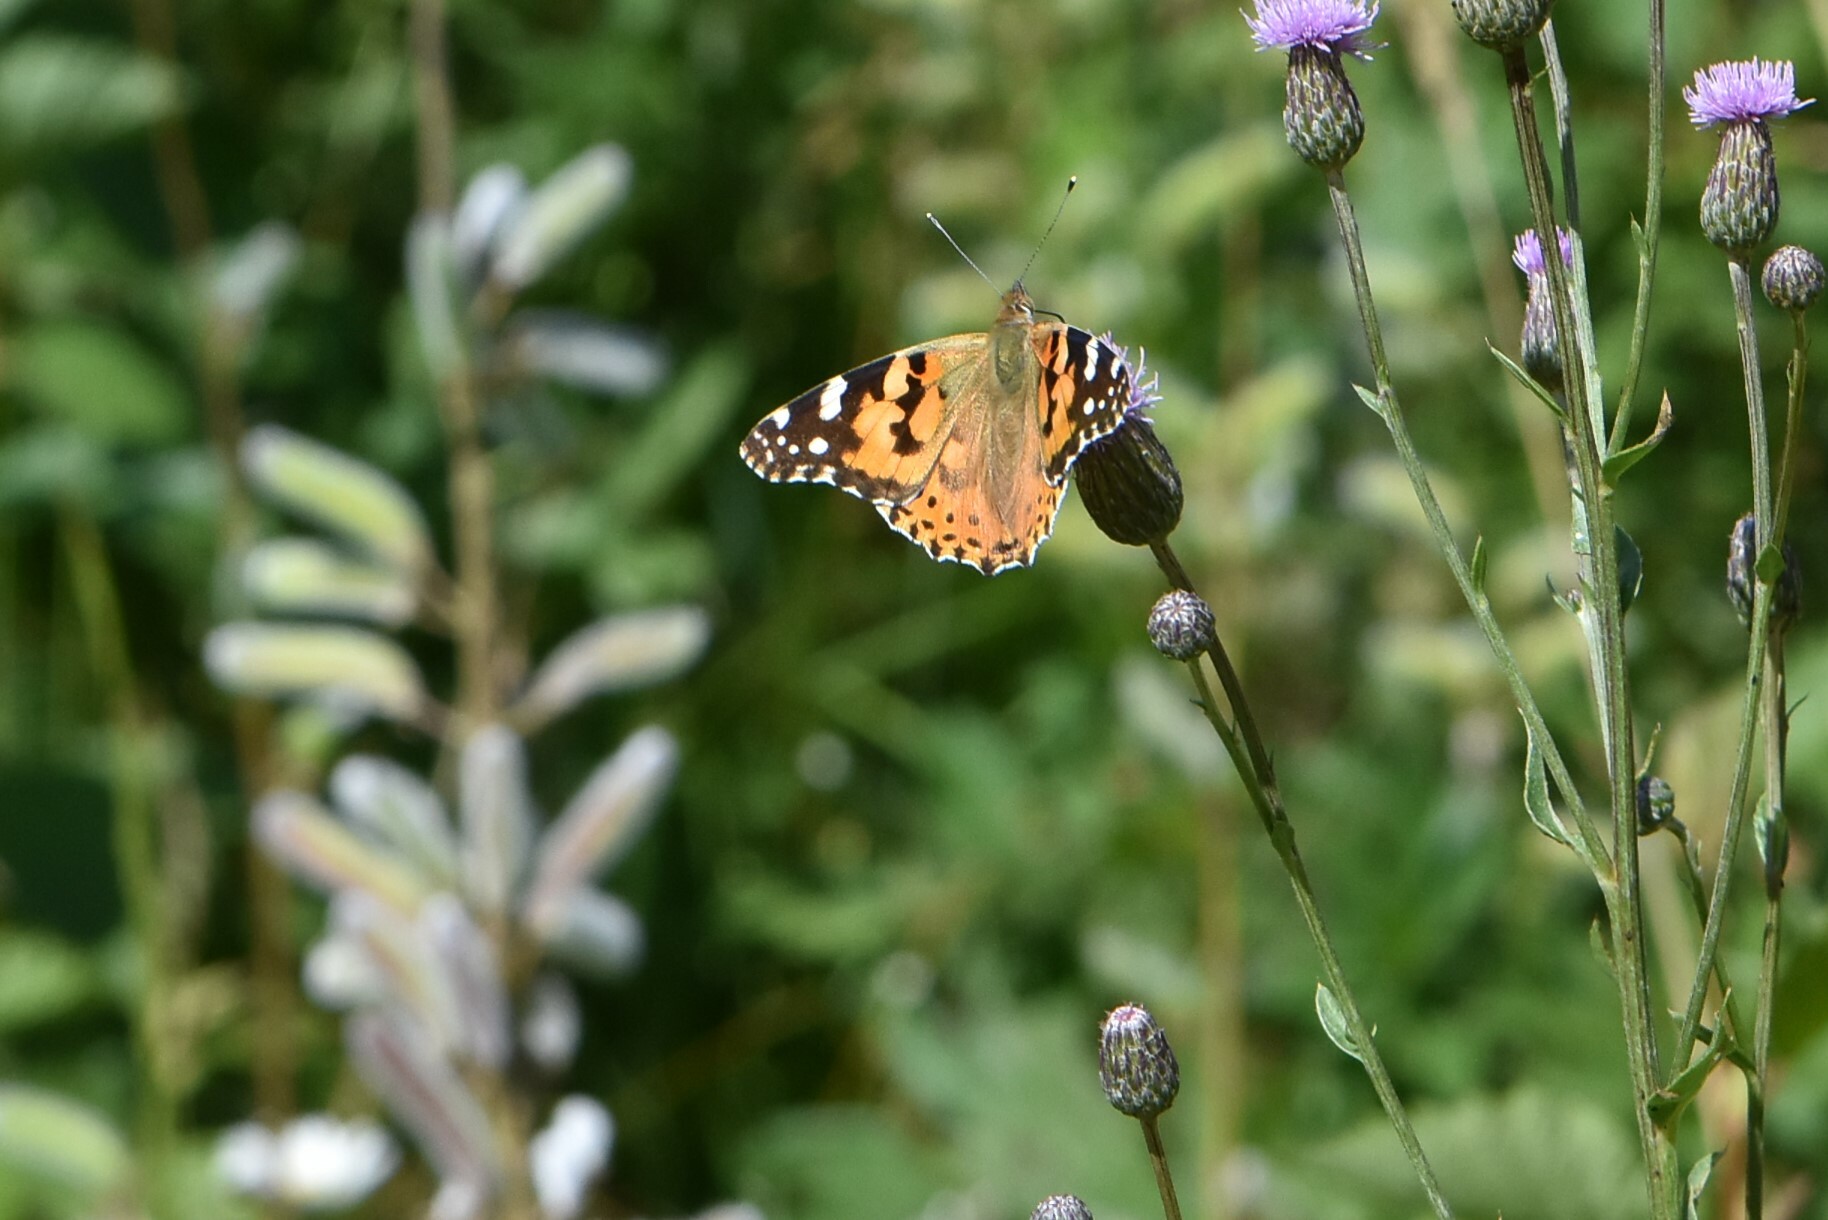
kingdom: Animalia
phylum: Arthropoda
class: Insecta
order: Lepidoptera
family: Nymphalidae
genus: Vanessa
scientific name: Vanessa cardui
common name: Painted lady
